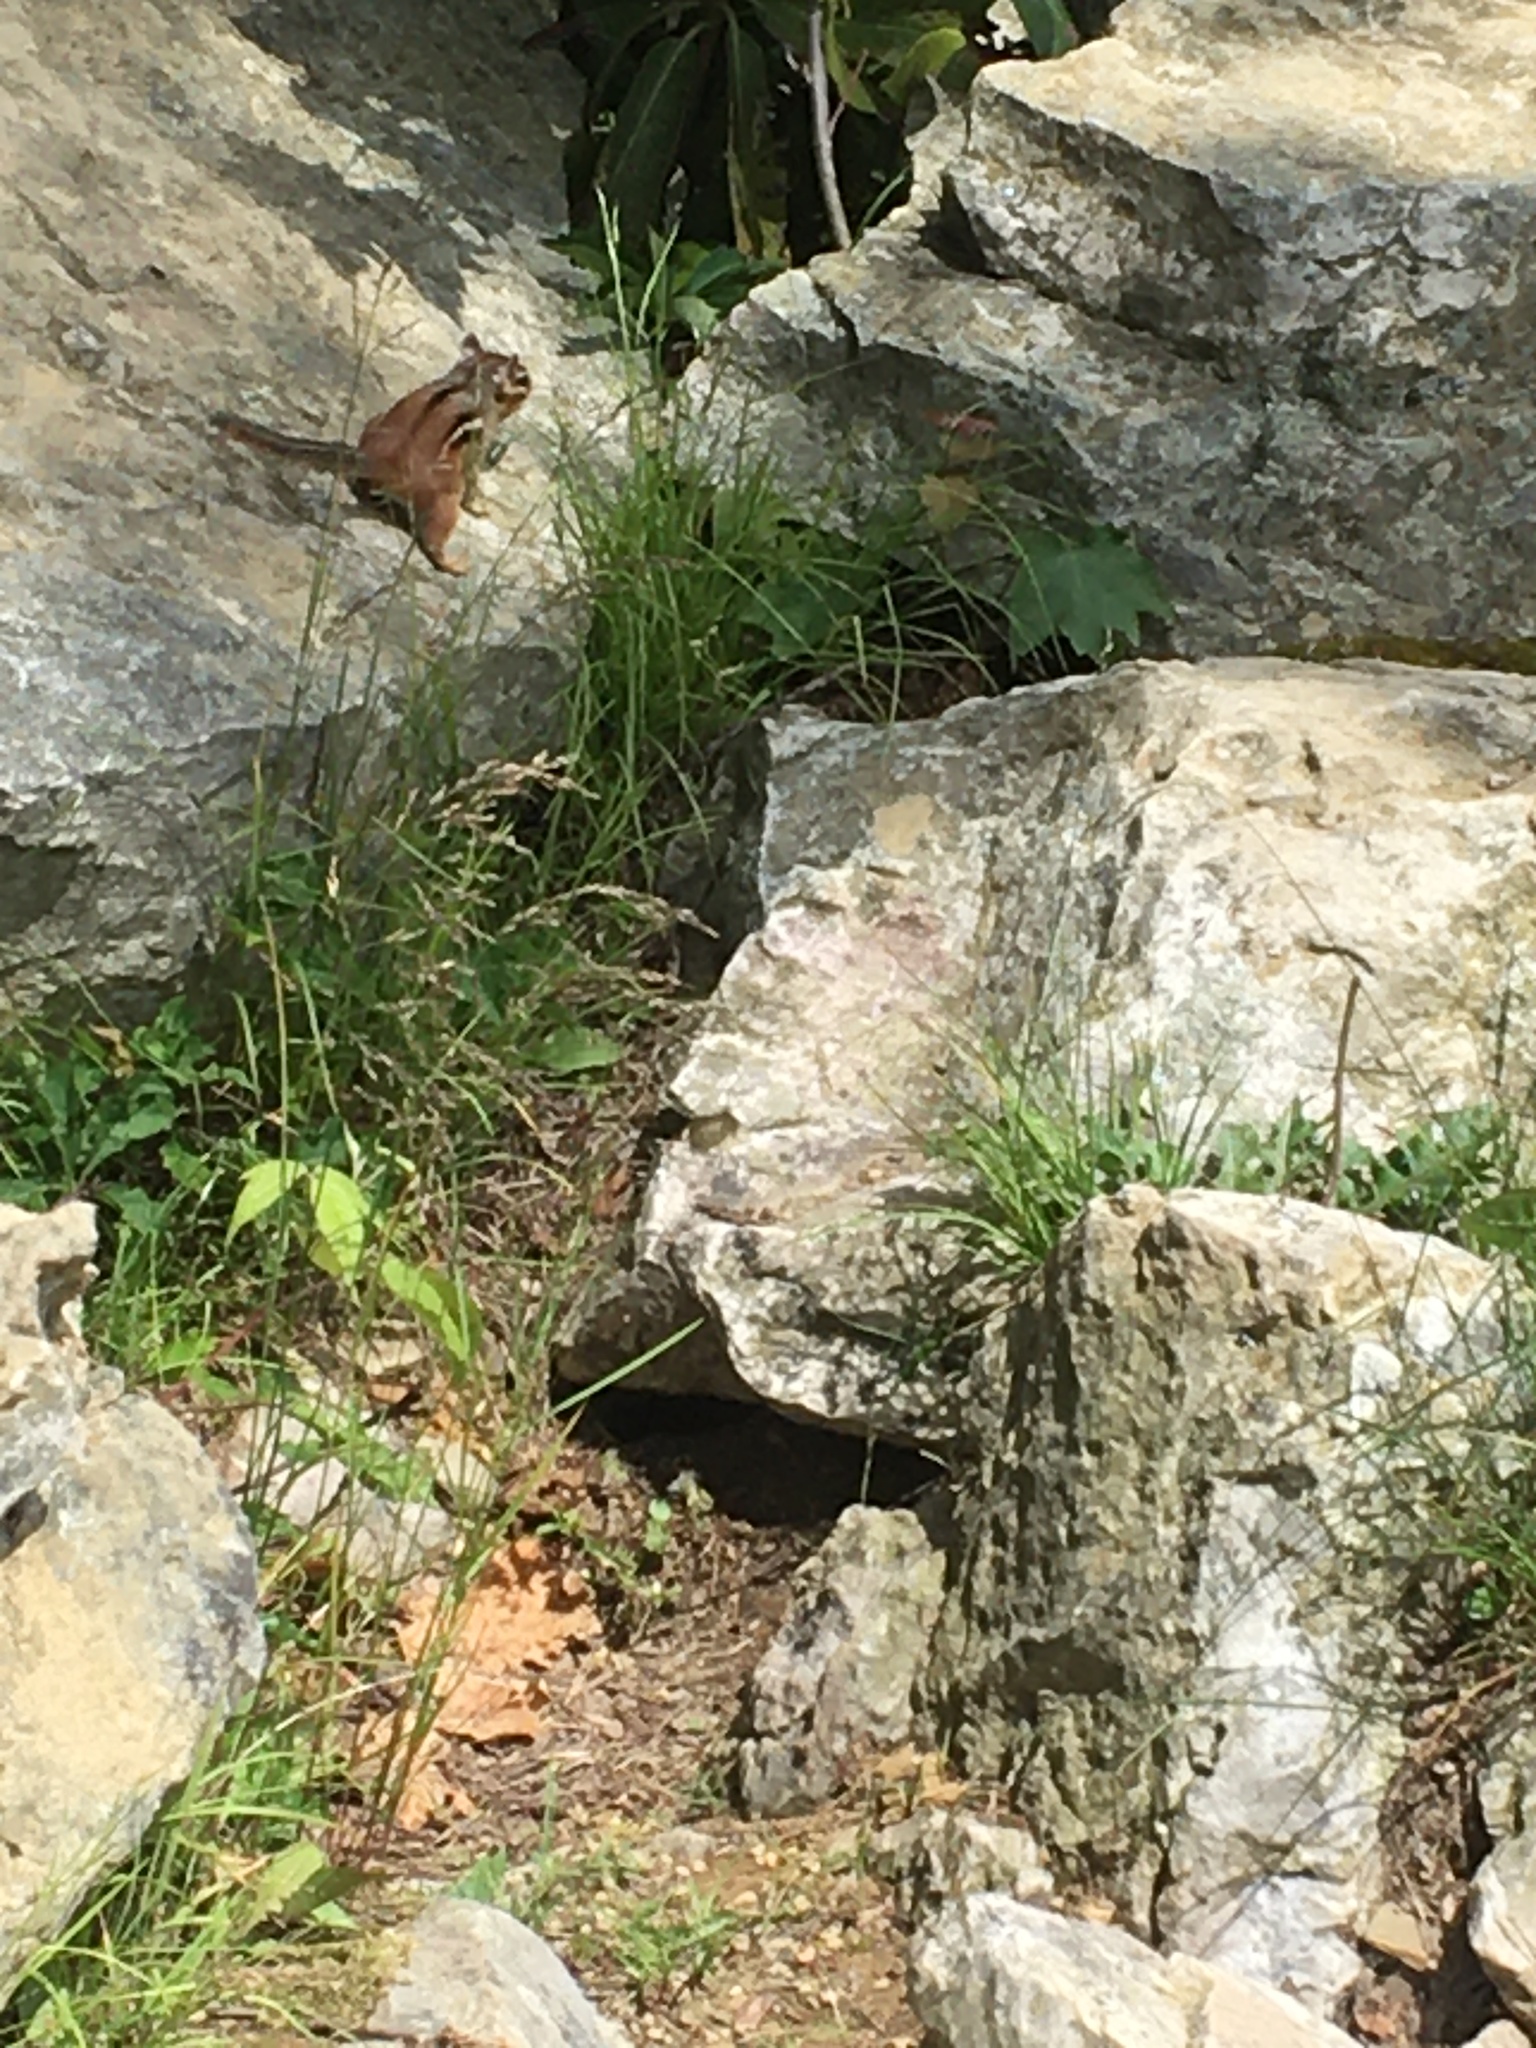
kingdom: Animalia
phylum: Chordata
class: Mammalia
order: Rodentia
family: Sciuridae
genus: Tamias
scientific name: Tamias striatus
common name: Eastern chipmunk
